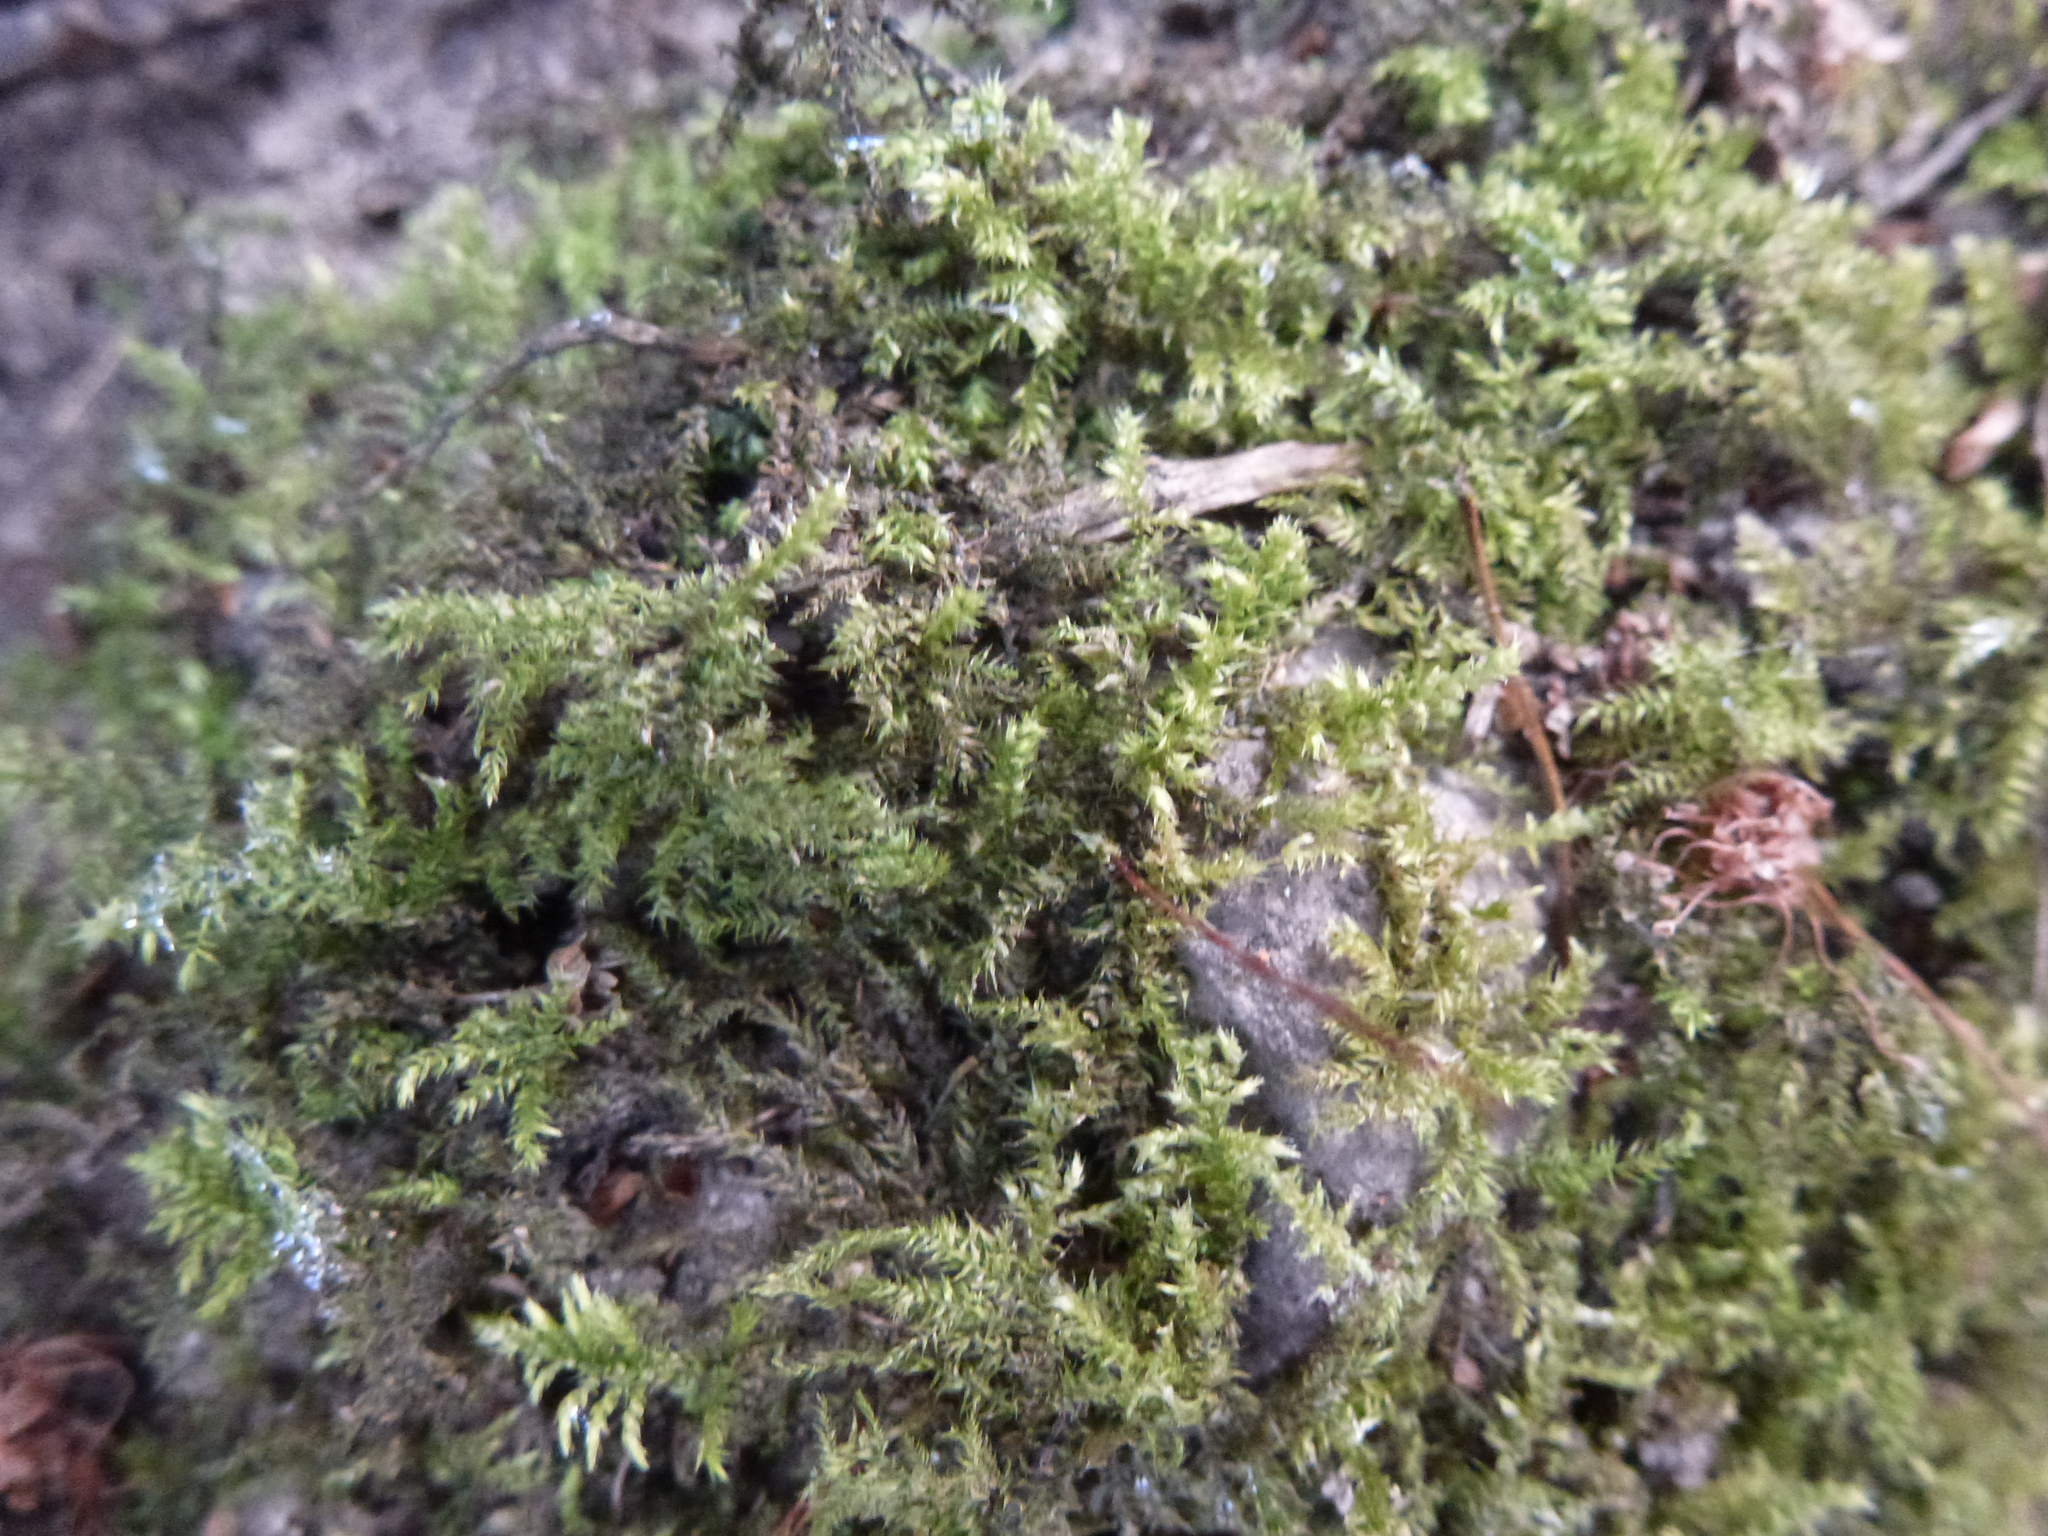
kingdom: Plantae
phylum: Bryophyta
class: Bryopsida
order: Hypnales
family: Brachytheciaceae
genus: Kindbergia
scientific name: Kindbergia praelonga
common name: Slender beaked moss
